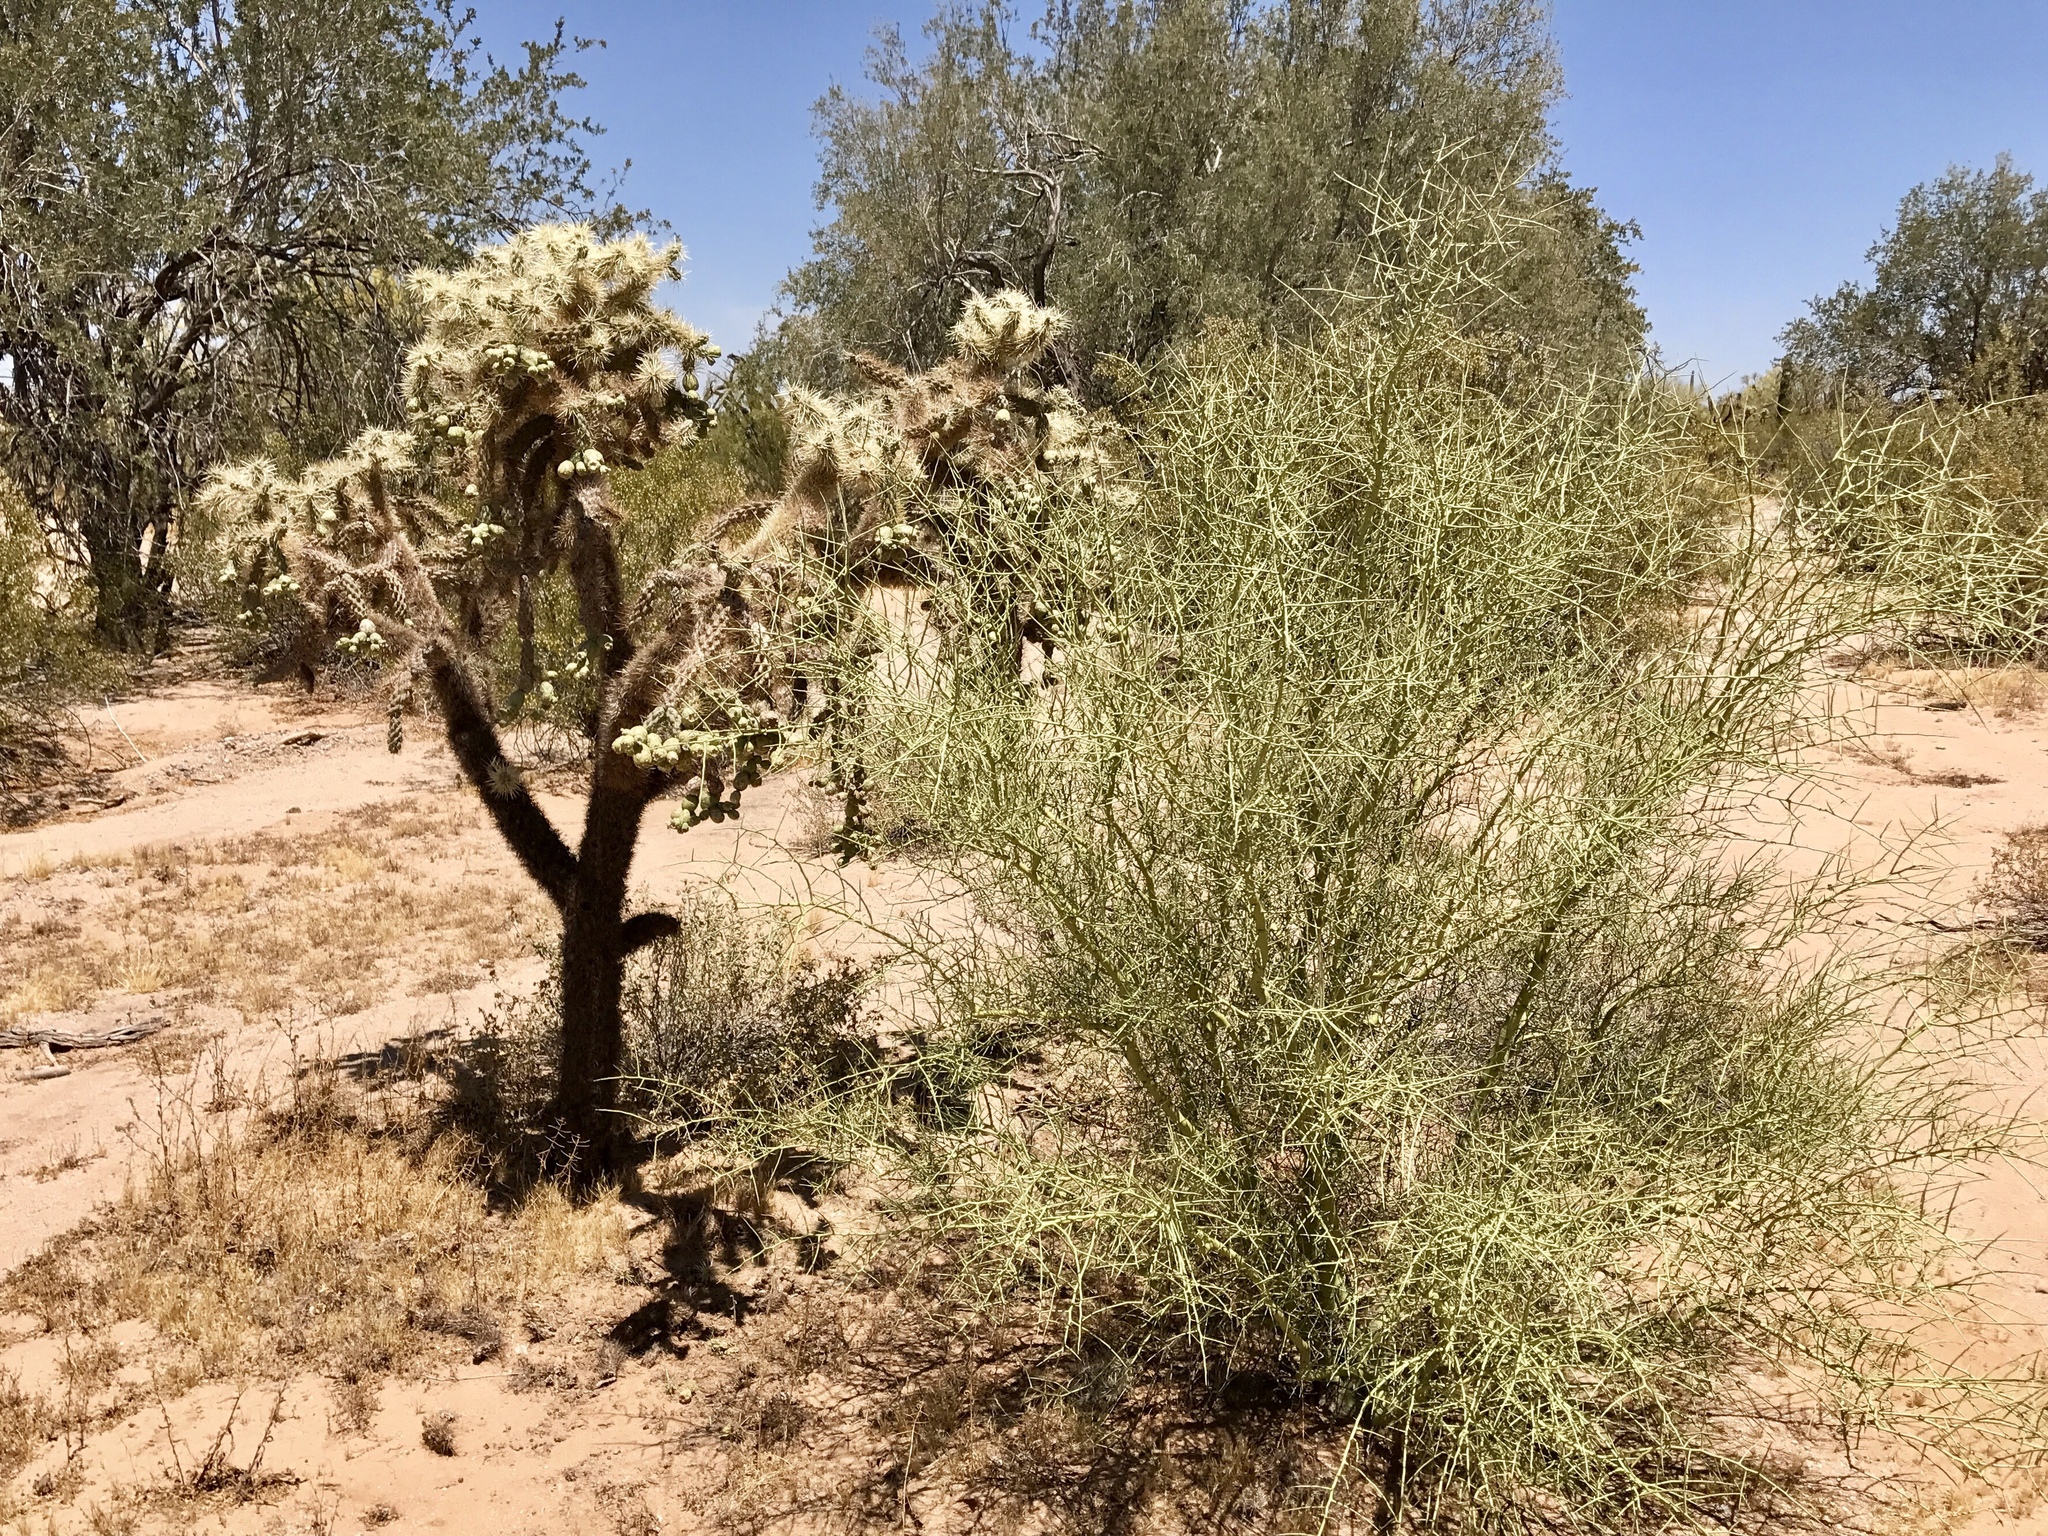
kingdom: Plantae
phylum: Tracheophyta
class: Magnoliopsida
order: Fabales
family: Fabaceae
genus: Parkinsonia
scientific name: Parkinsonia microphylla
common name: Yellow paloverde
